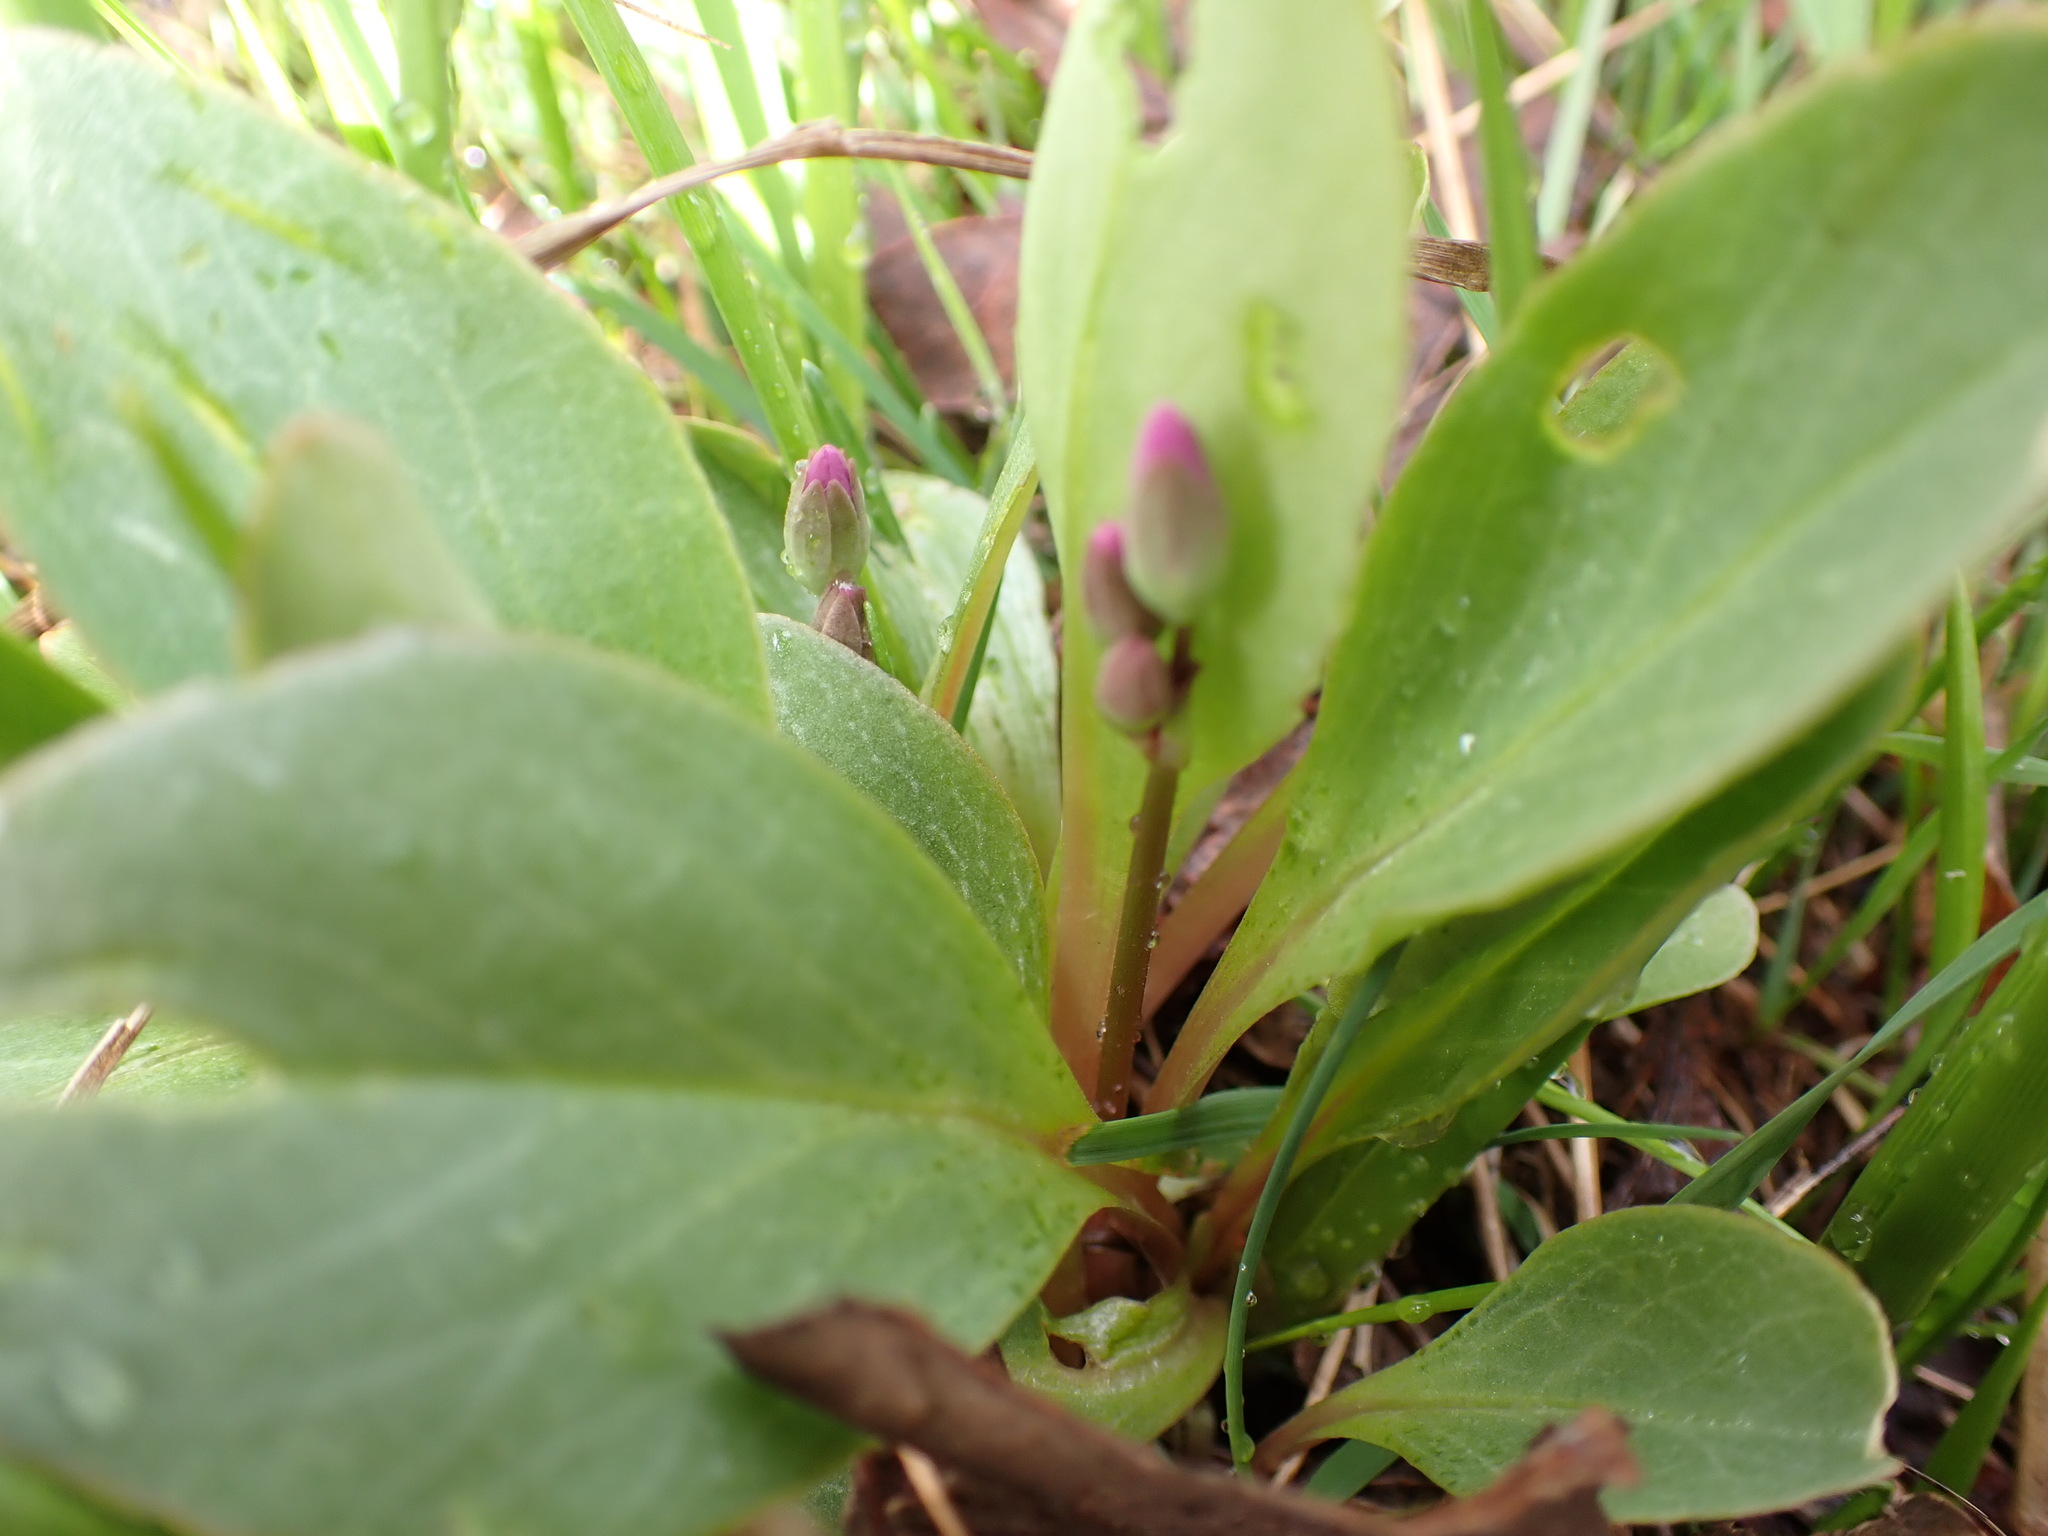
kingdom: Plantae
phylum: Tracheophyta
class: Magnoliopsida
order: Ericales
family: Primulaceae
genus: Dodecatheon
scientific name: Dodecatheon pulchellum
